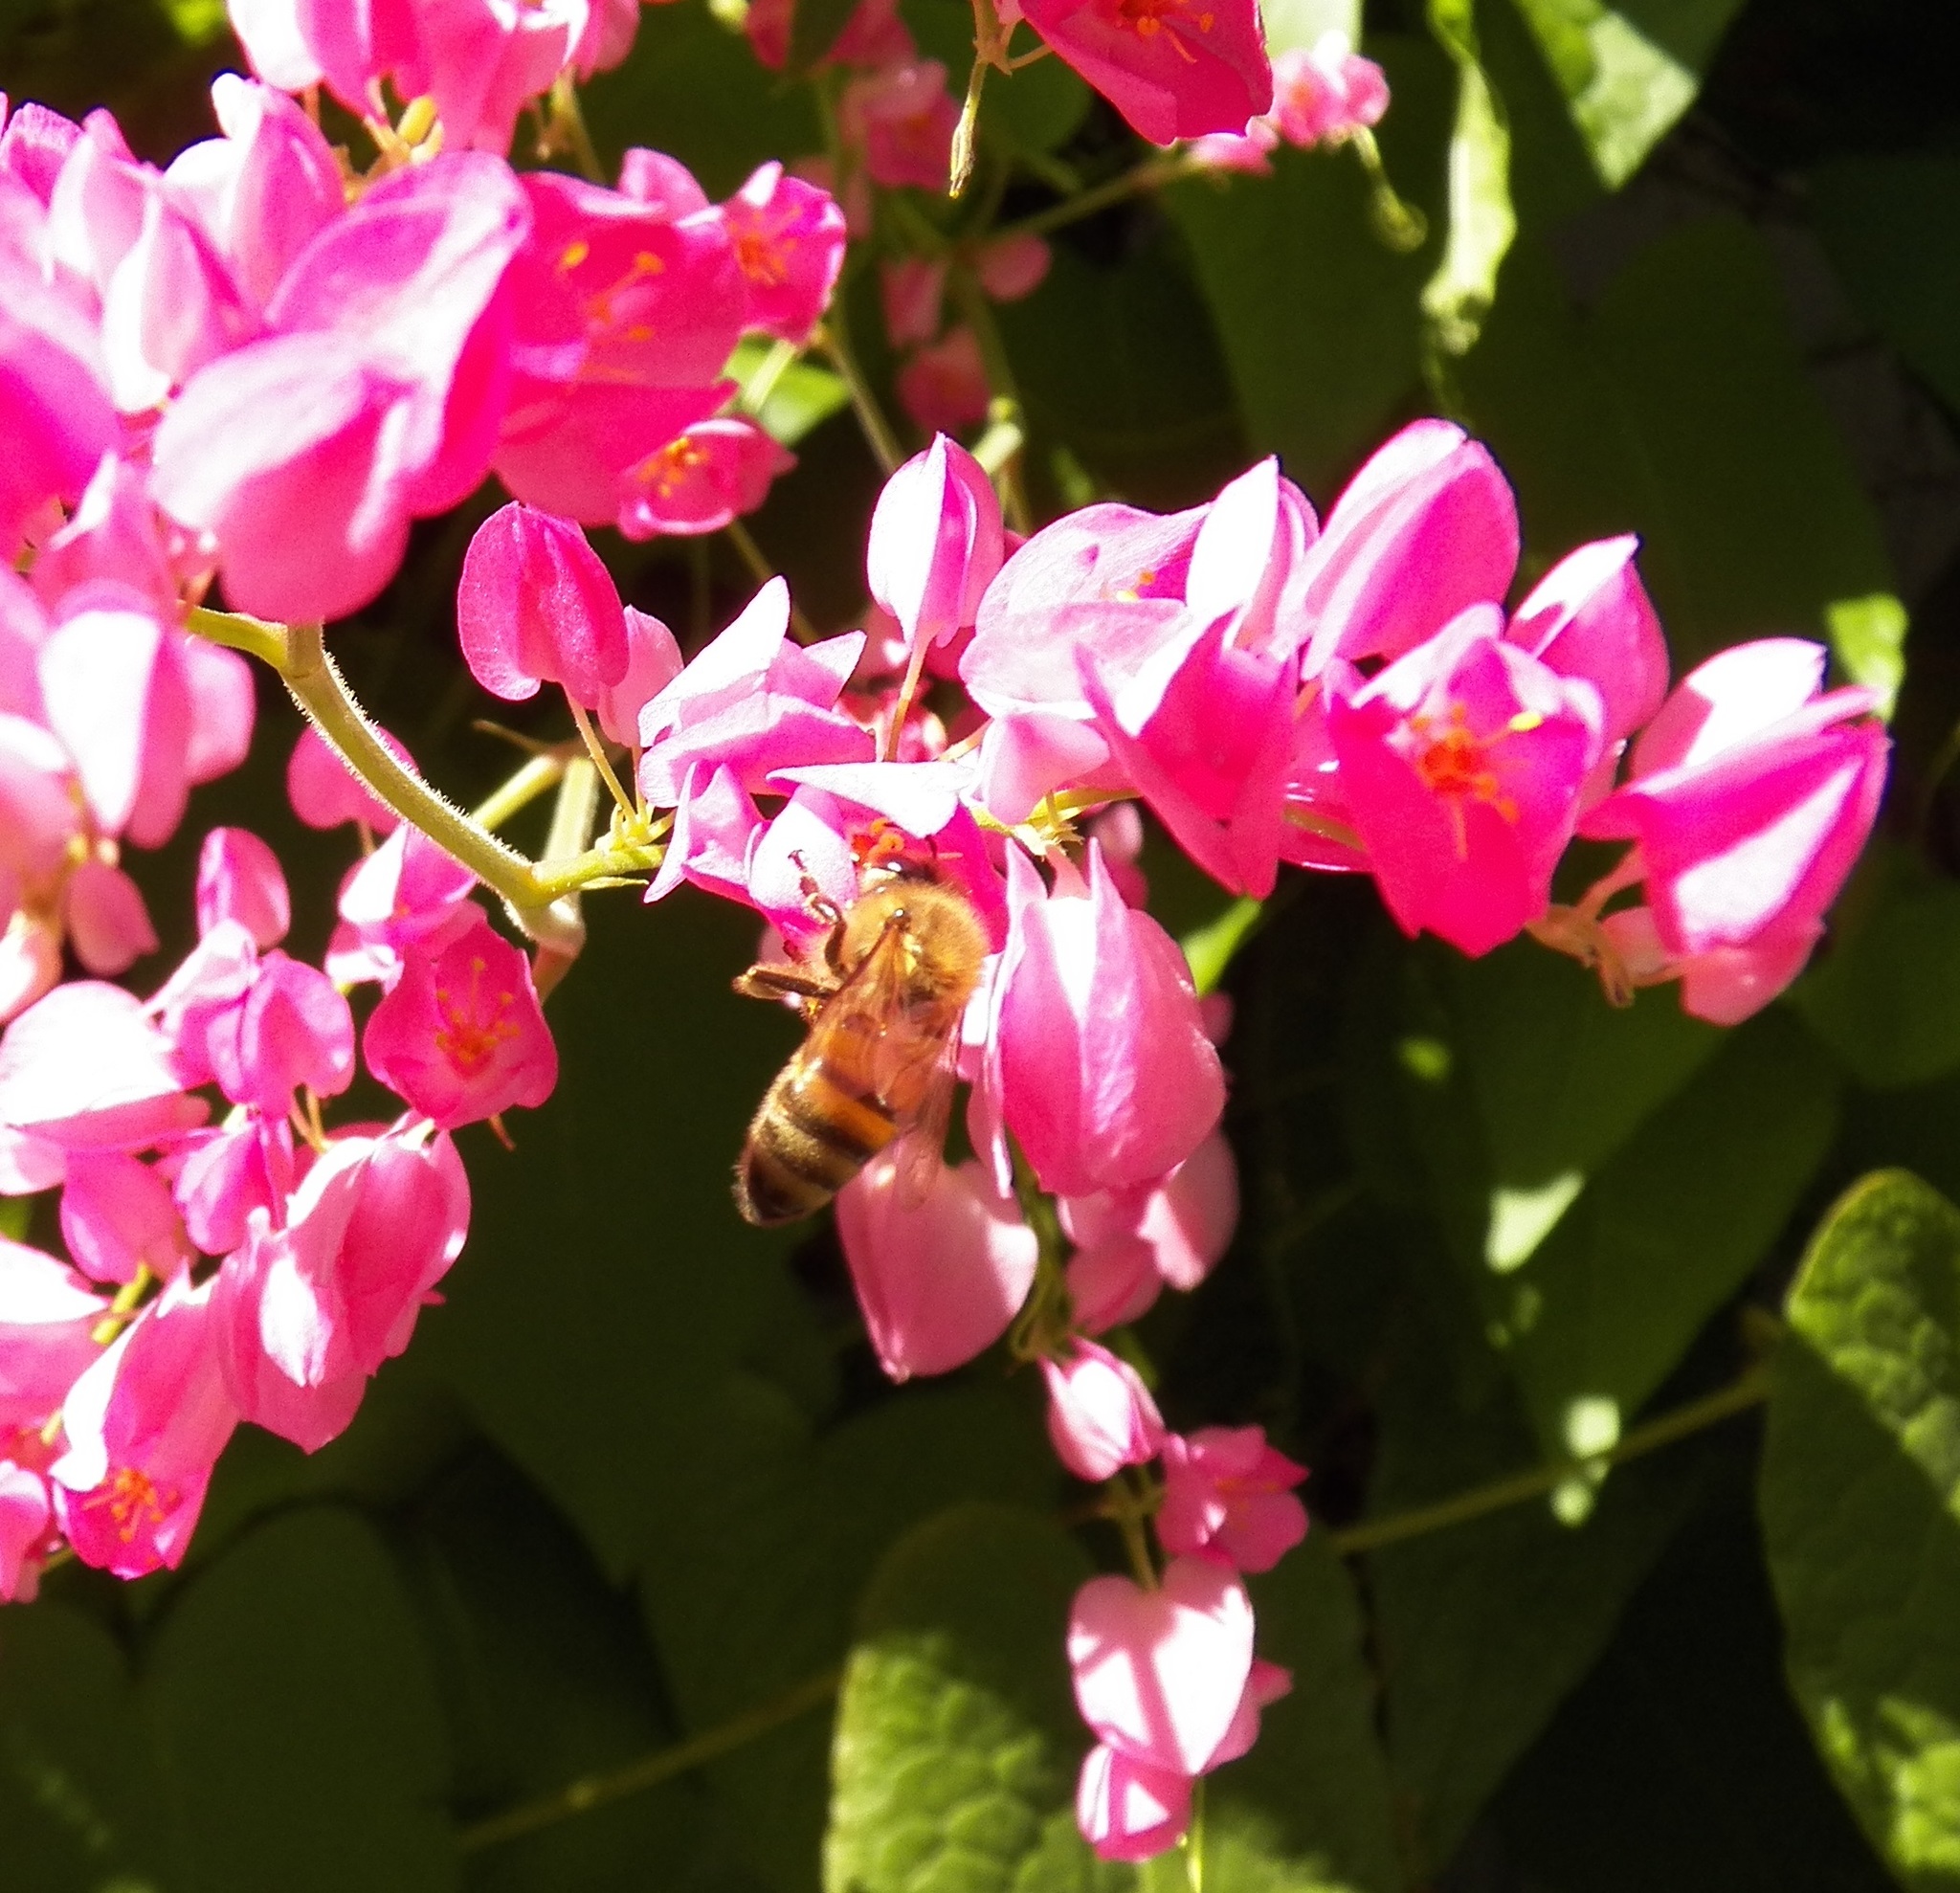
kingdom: Animalia
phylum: Arthropoda
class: Insecta
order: Hymenoptera
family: Apidae
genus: Apis
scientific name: Apis mellifera
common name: Honey bee
